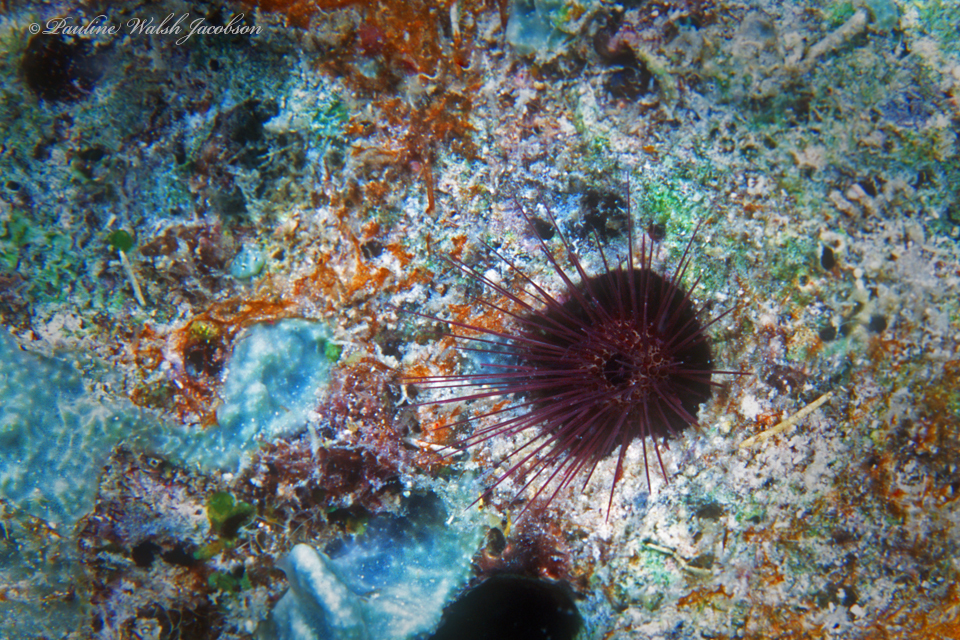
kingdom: Animalia
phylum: Echinodermata
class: Echinoidea
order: Camarodonta
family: Echinometridae
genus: Echinostrephus
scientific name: Echinostrephus molaris
